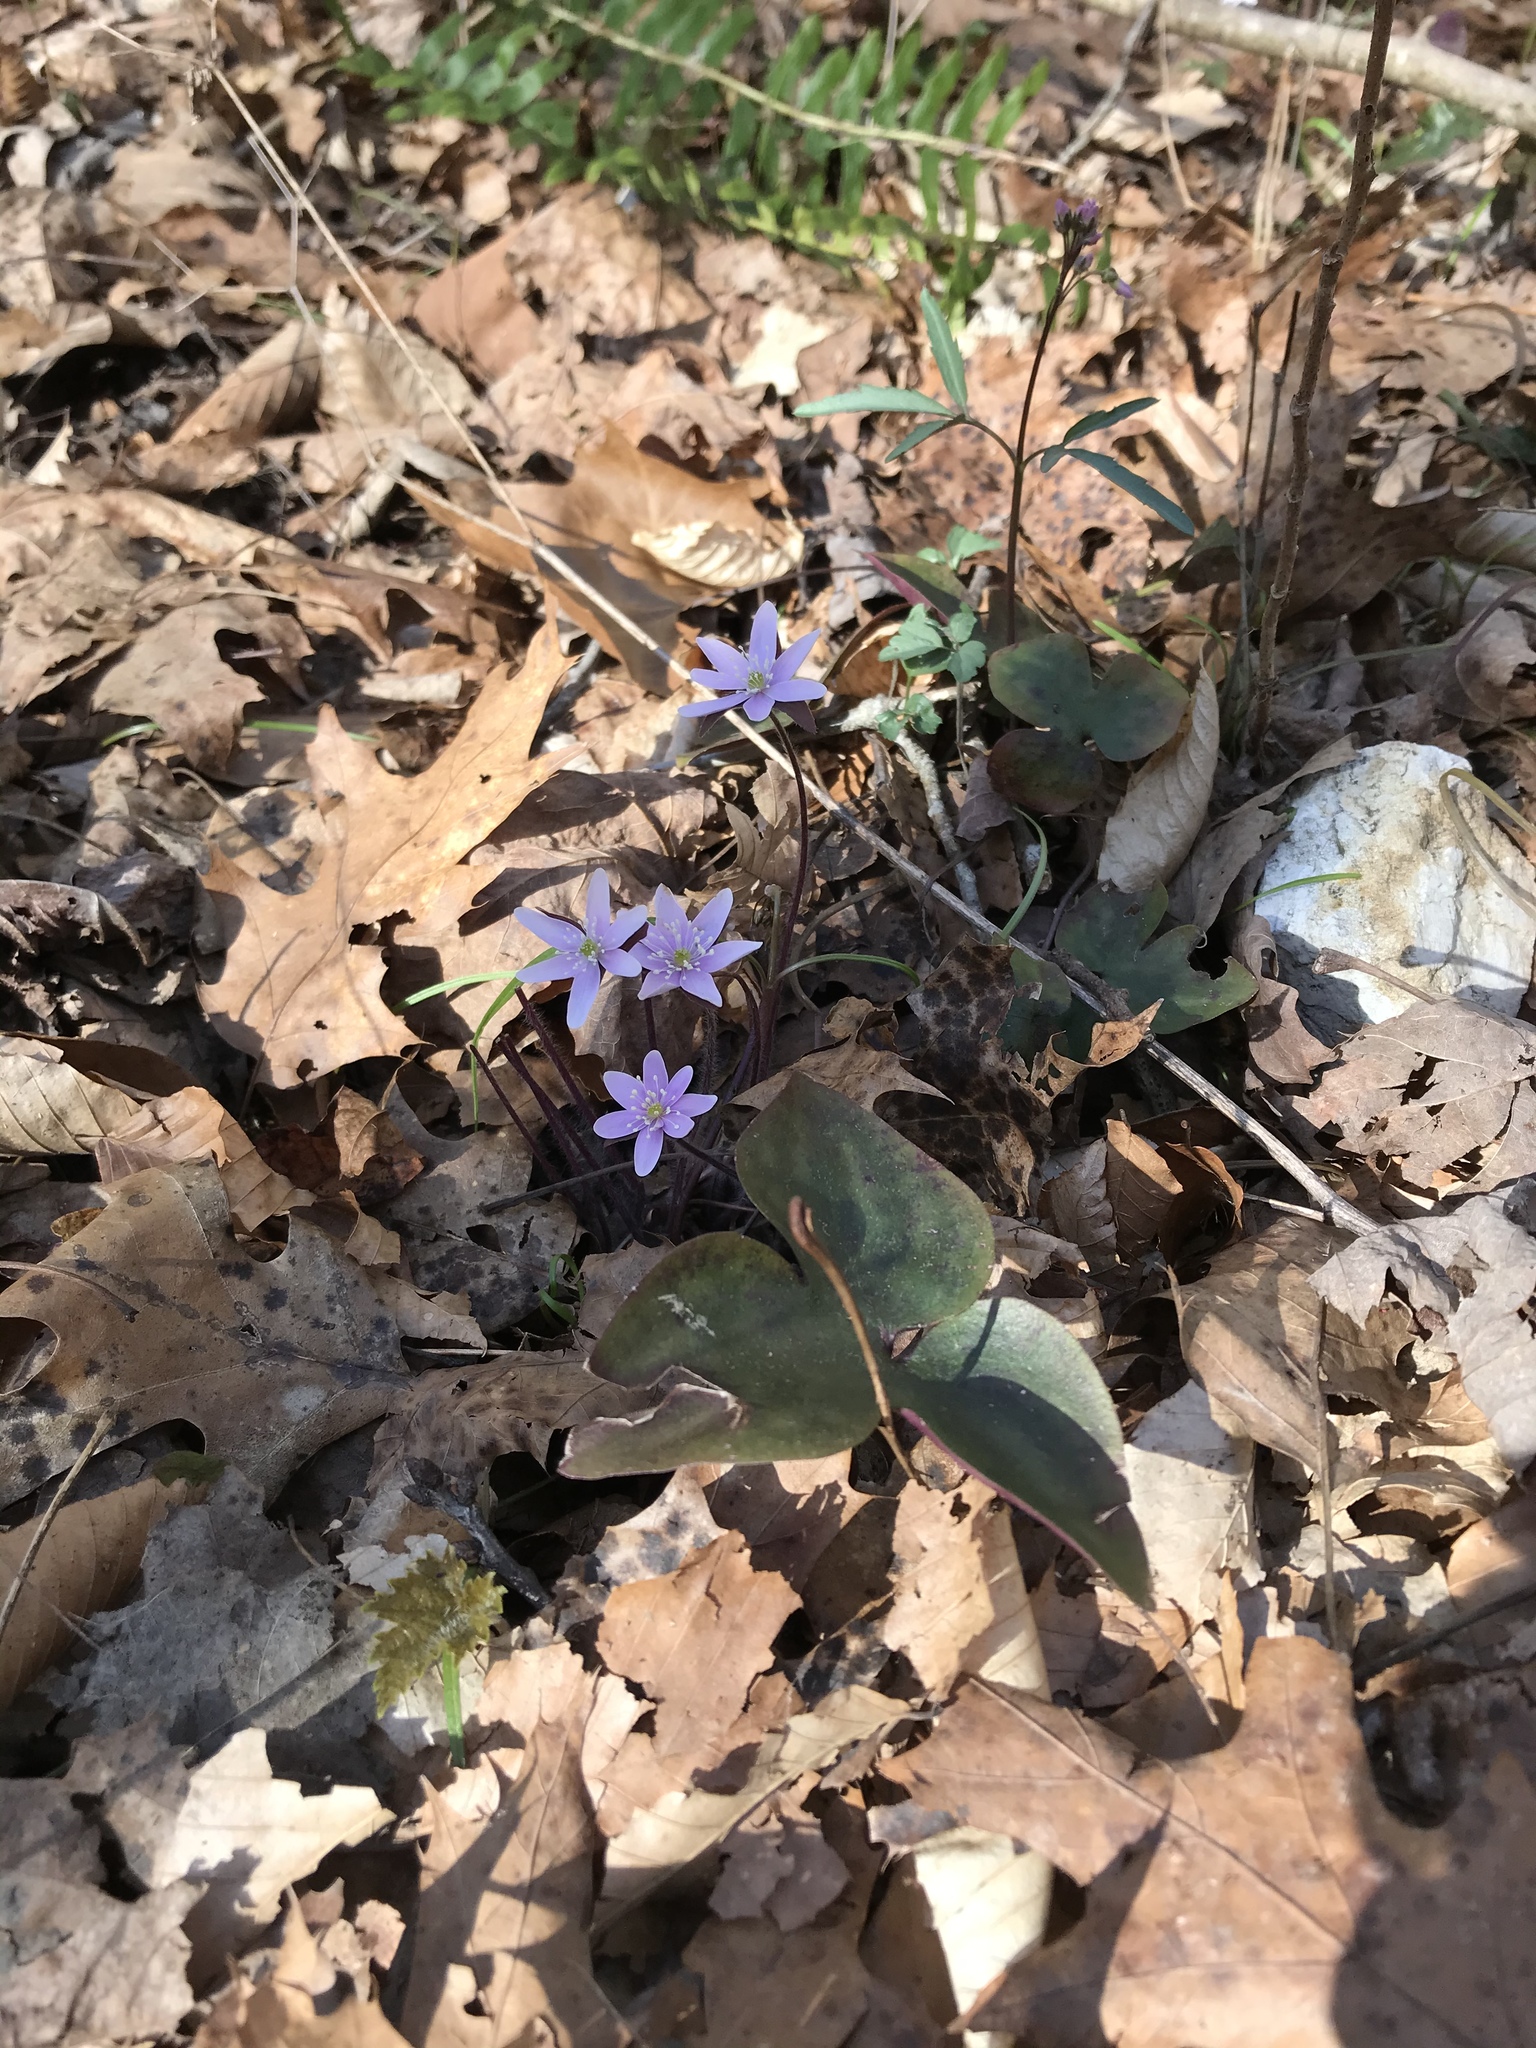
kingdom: Plantae
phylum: Tracheophyta
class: Magnoliopsida
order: Ranunculales
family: Ranunculaceae
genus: Hepatica
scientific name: Hepatica acutiloba
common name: Sharp-lobed hepatica
